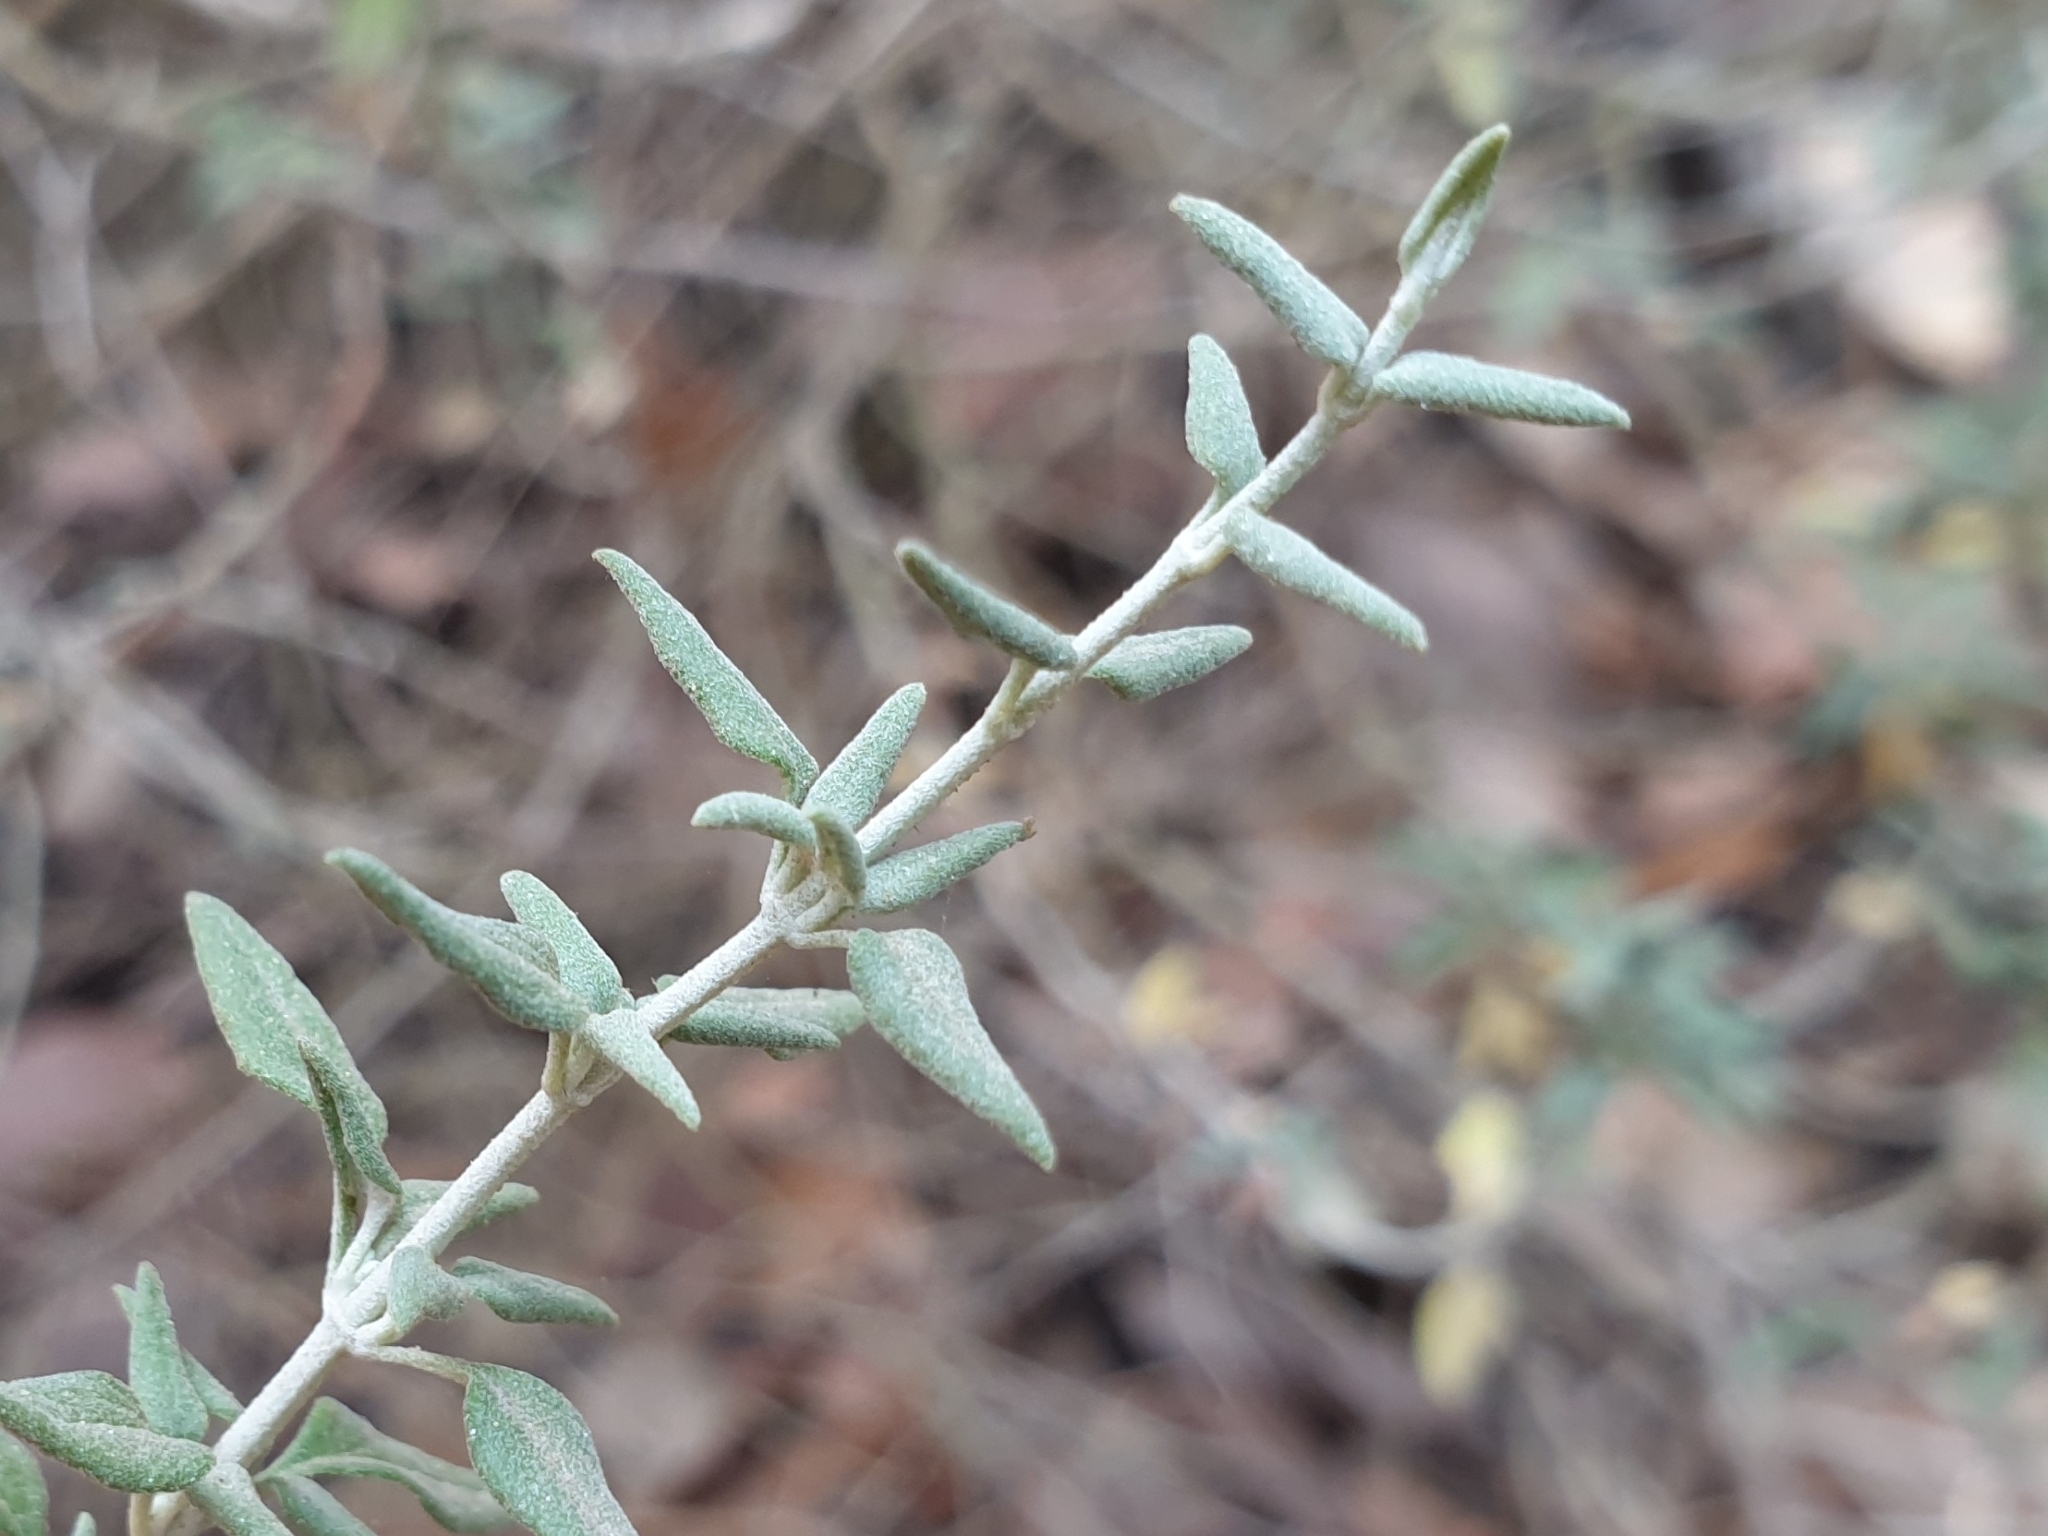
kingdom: Plantae
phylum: Tracheophyta
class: Magnoliopsida
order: Lamiales
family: Lamiaceae
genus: Teucrium
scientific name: Teucrium marum
